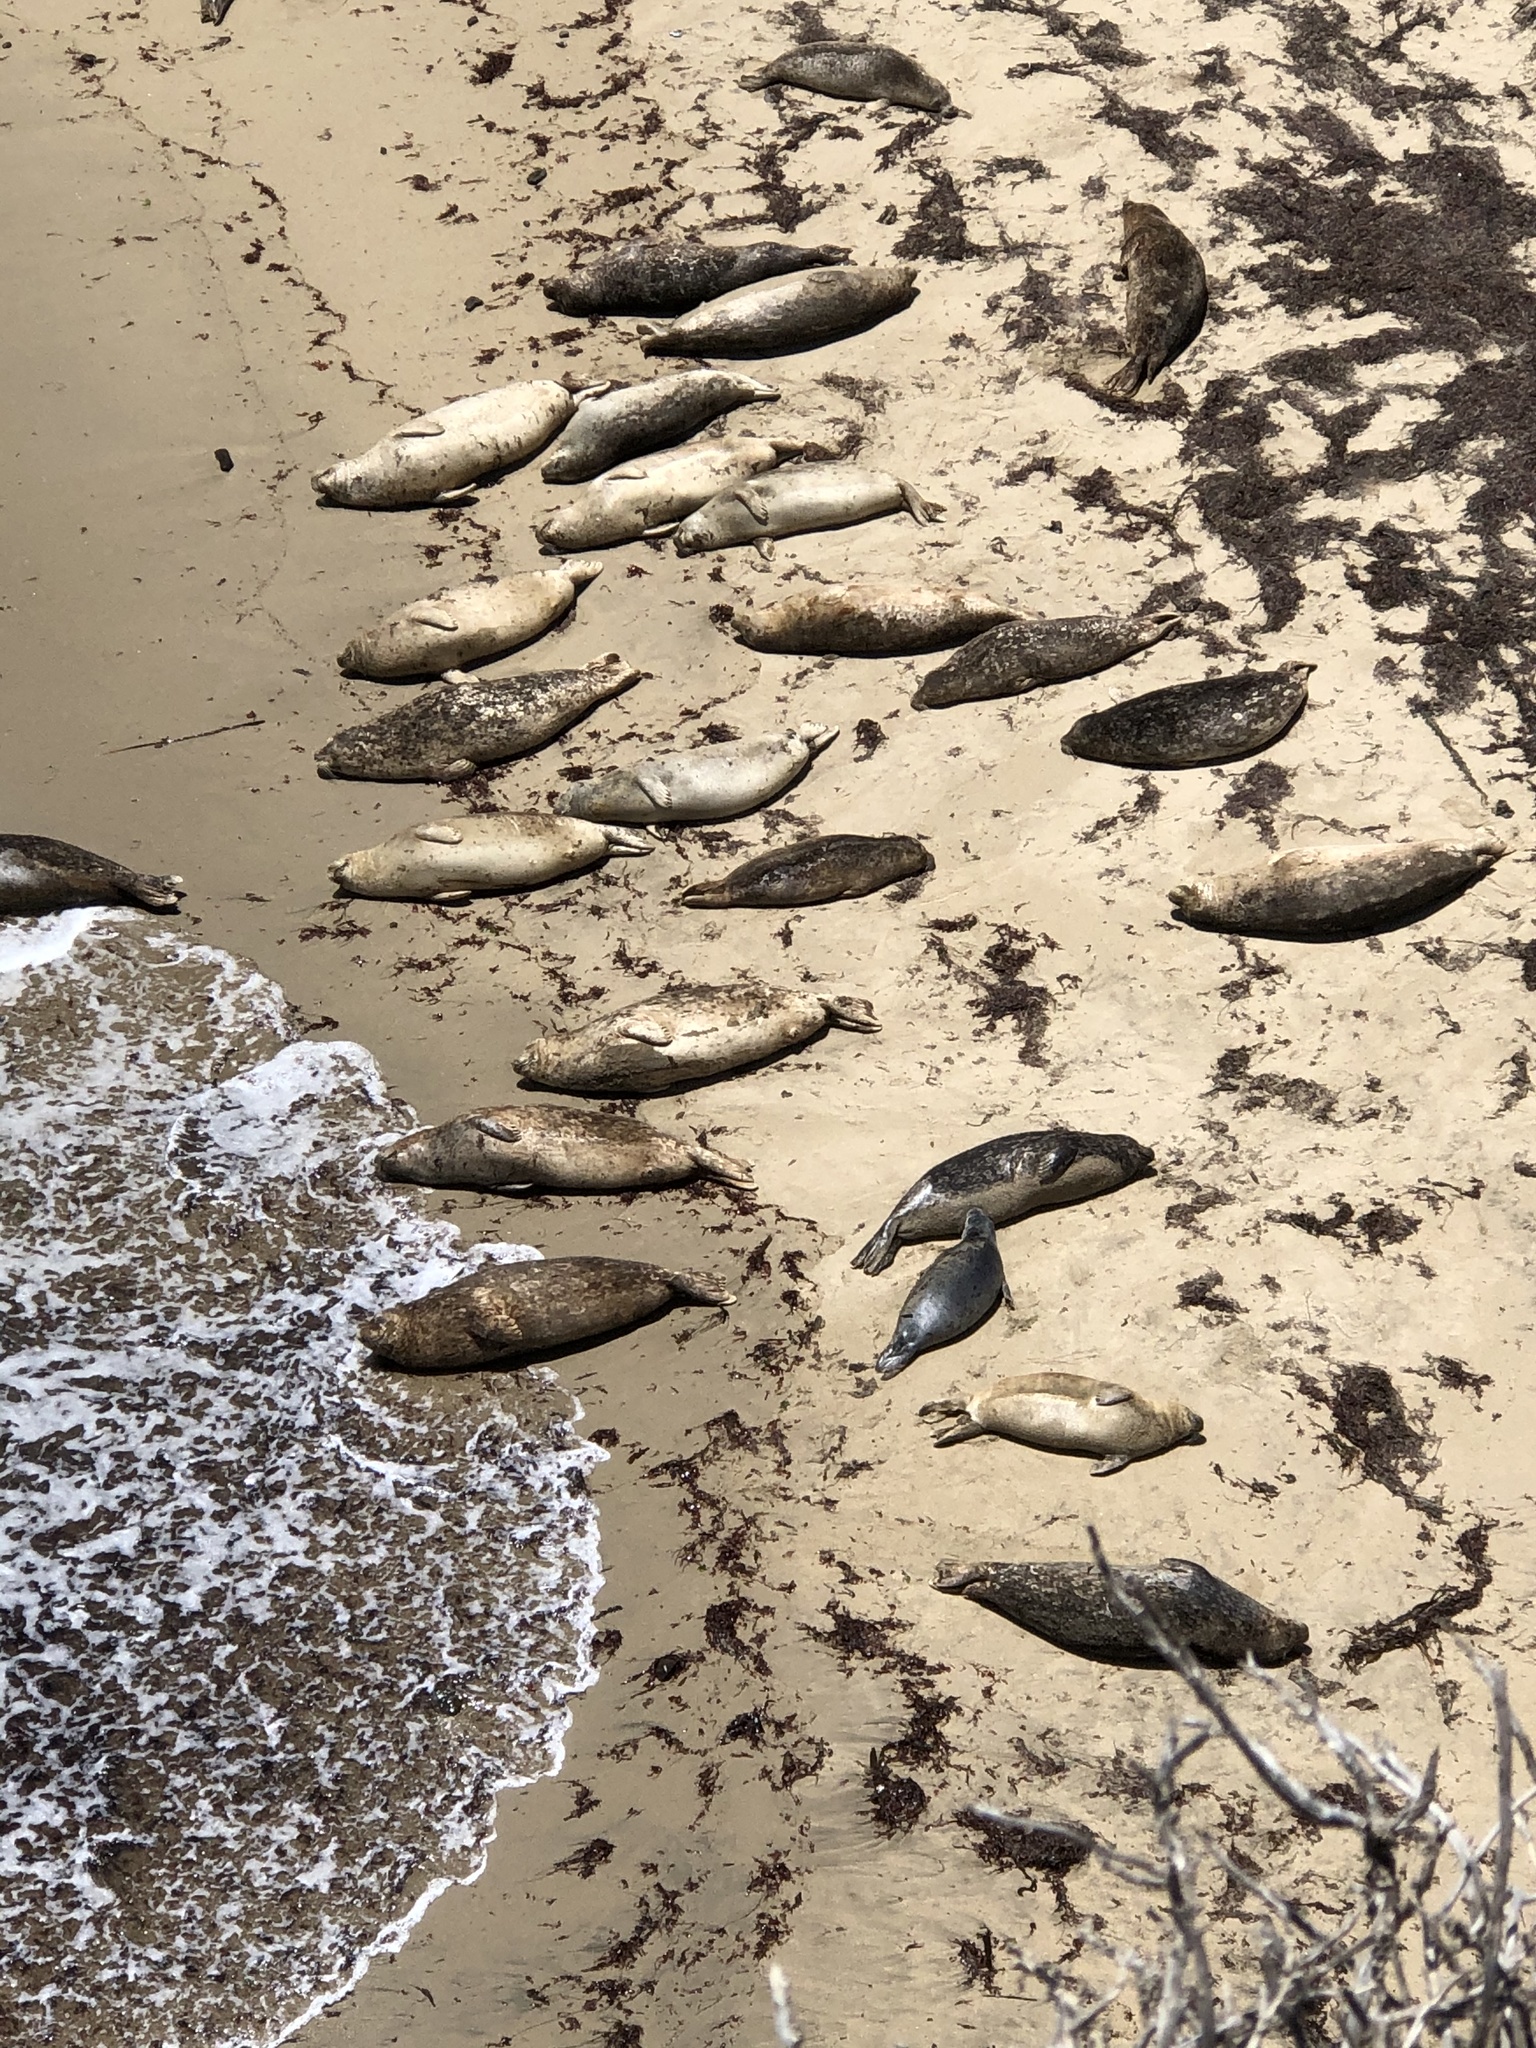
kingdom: Animalia
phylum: Chordata
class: Mammalia
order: Carnivora
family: Phocidae
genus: Phoca
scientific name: Phoca vitulina
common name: Harbor seal
